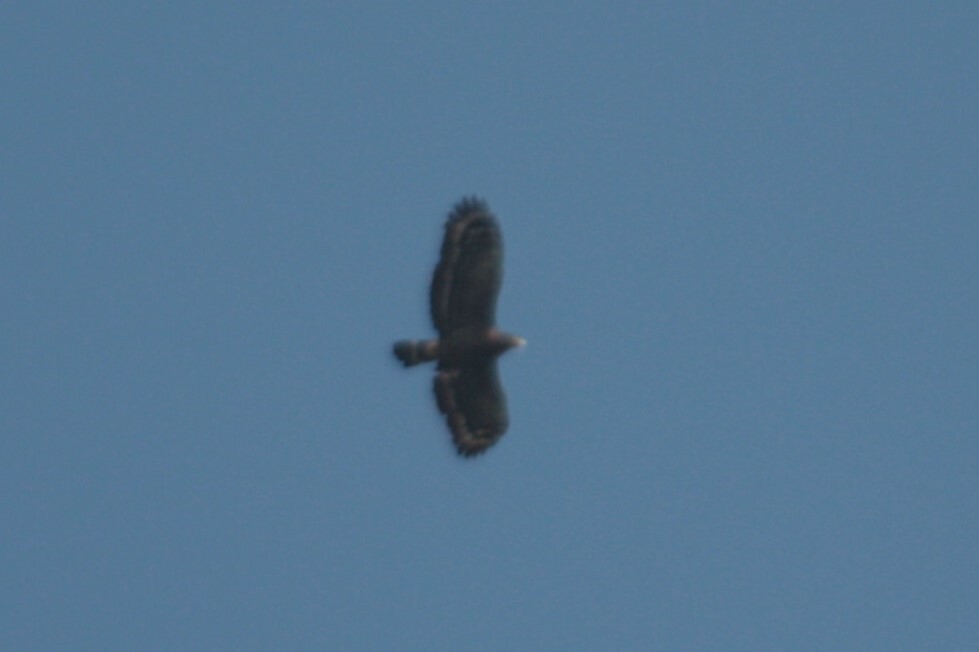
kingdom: Animalia
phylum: Chordata
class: Aves
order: Accipitriformes
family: Accipitridae
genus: Spilornis
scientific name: Spilornis cheela
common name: Crested serpent eagle
